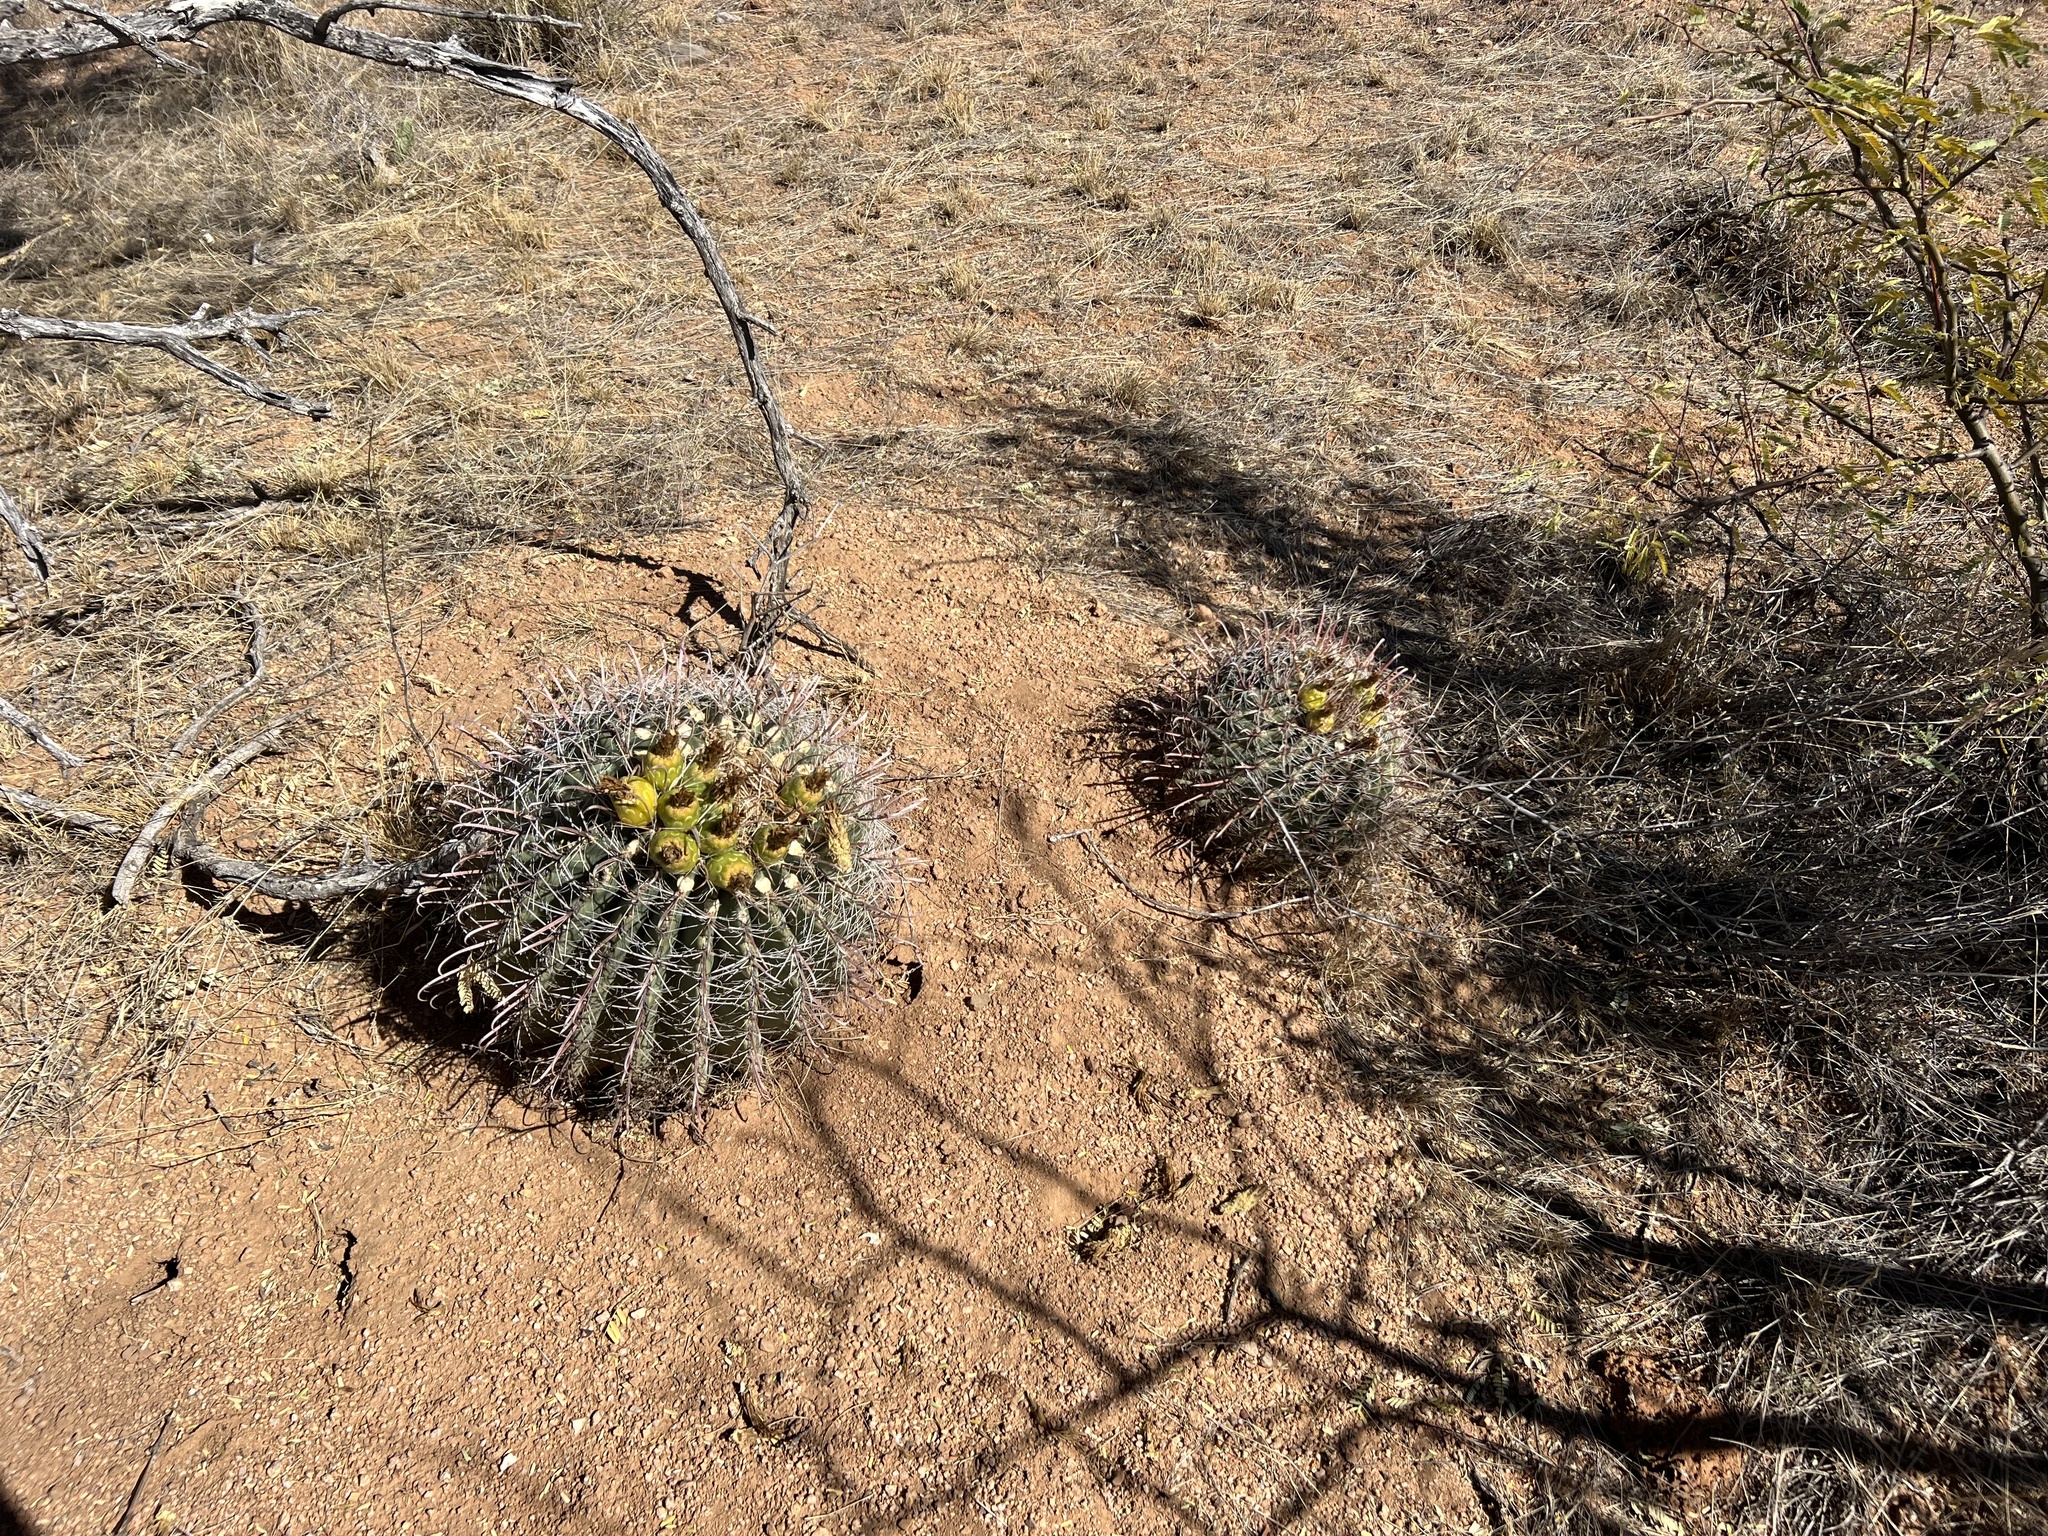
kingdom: Plantae
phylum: Tracheophyta
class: Magnoliopsida
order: Caryophyllales
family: Cactaceae
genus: Ferocactus
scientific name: Ferocactus wislizeni
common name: Candy barrel cactus
